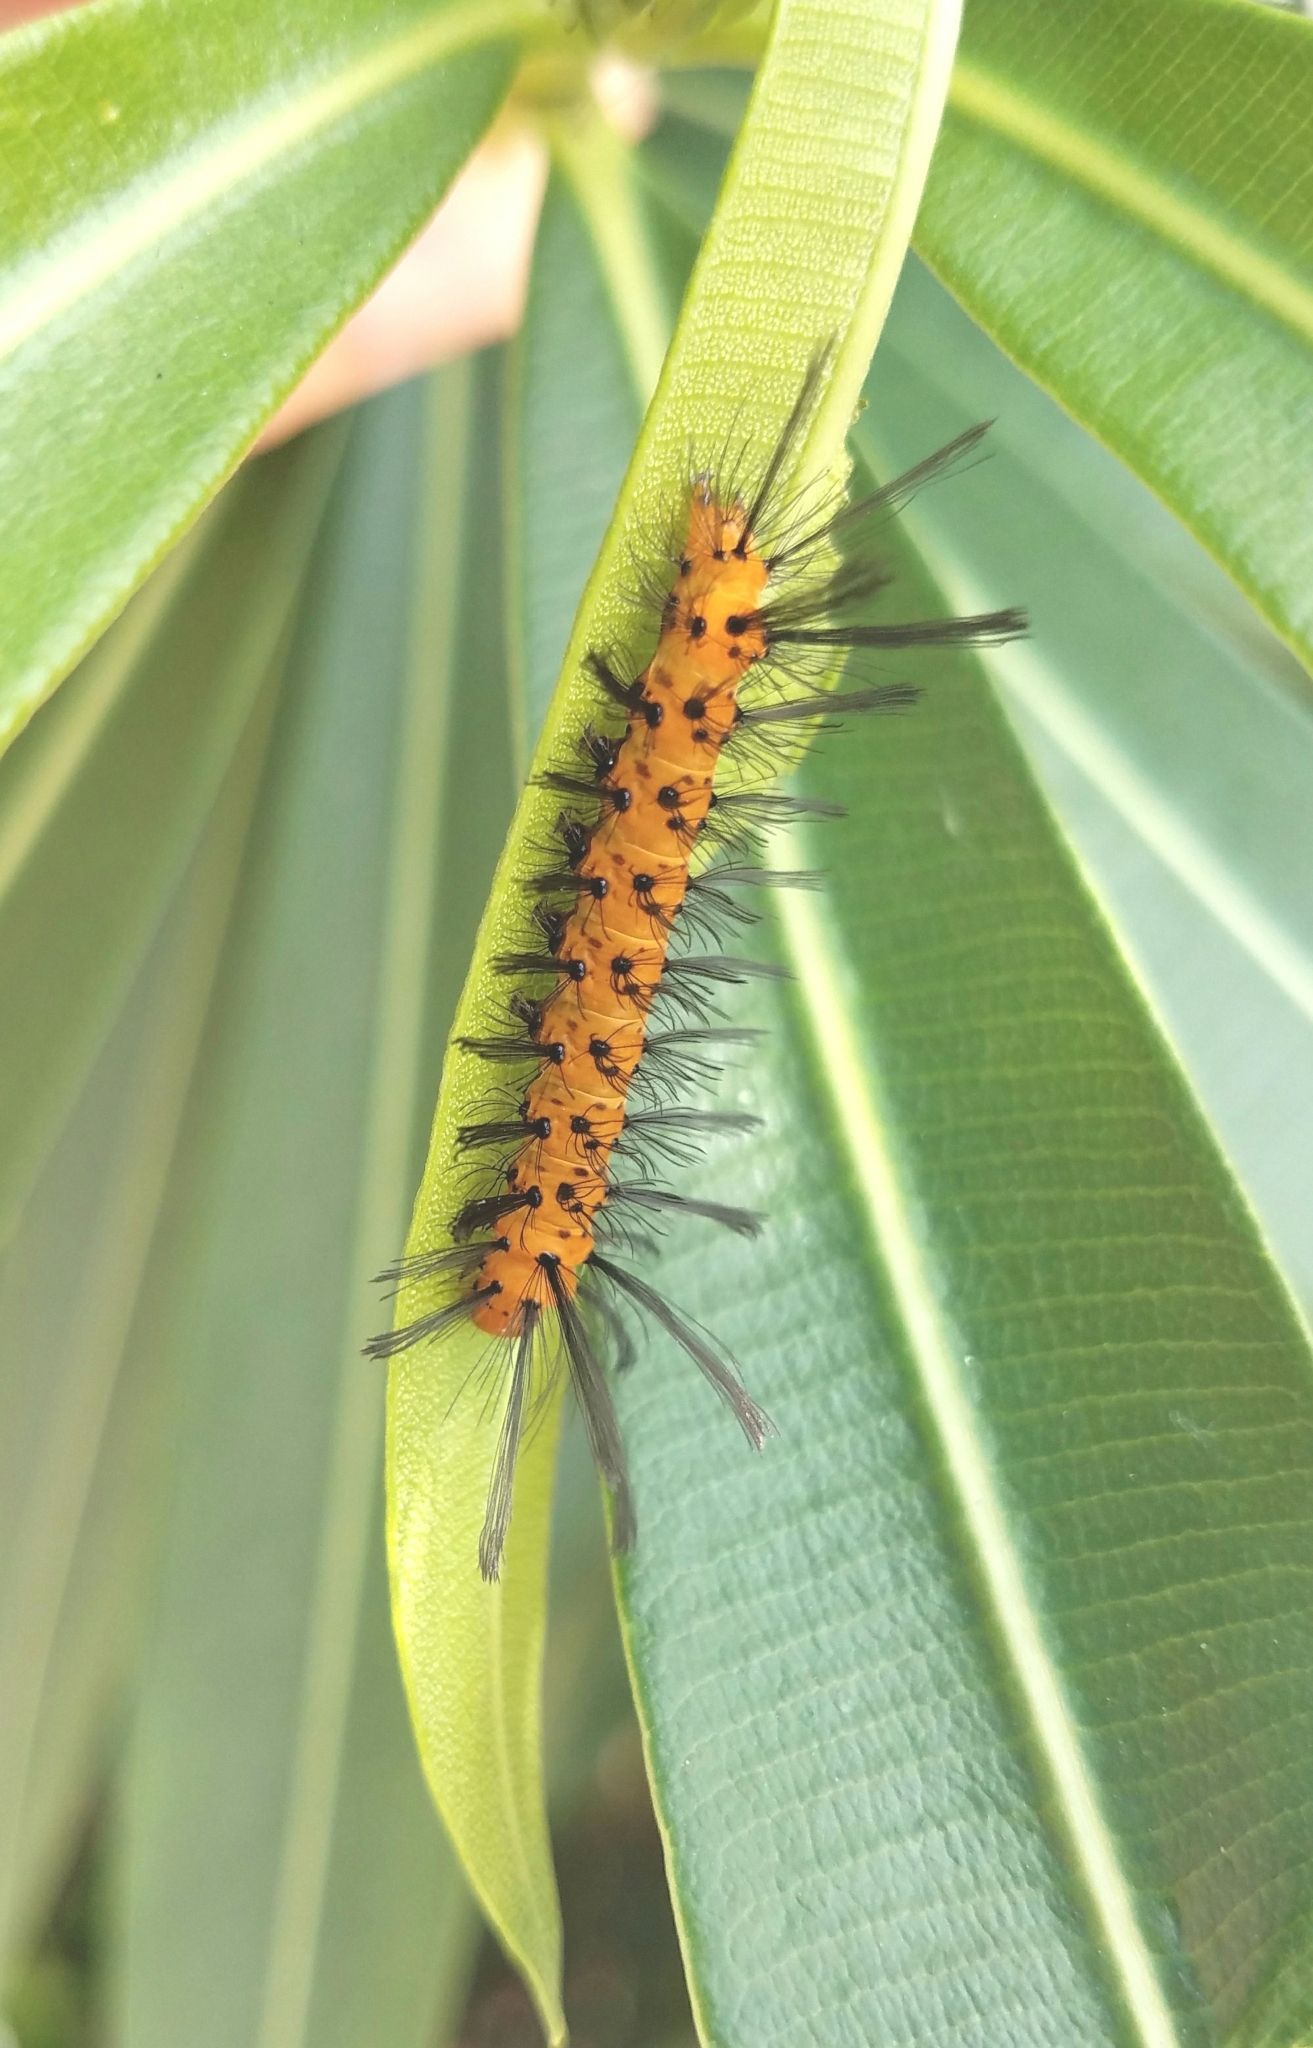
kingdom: Animalia
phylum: Arthropoda
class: Insecta
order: Lepidoptera
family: Erebidae
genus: Syntomeida
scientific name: Syntomeida epilais
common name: Polka-dot wasp moth
